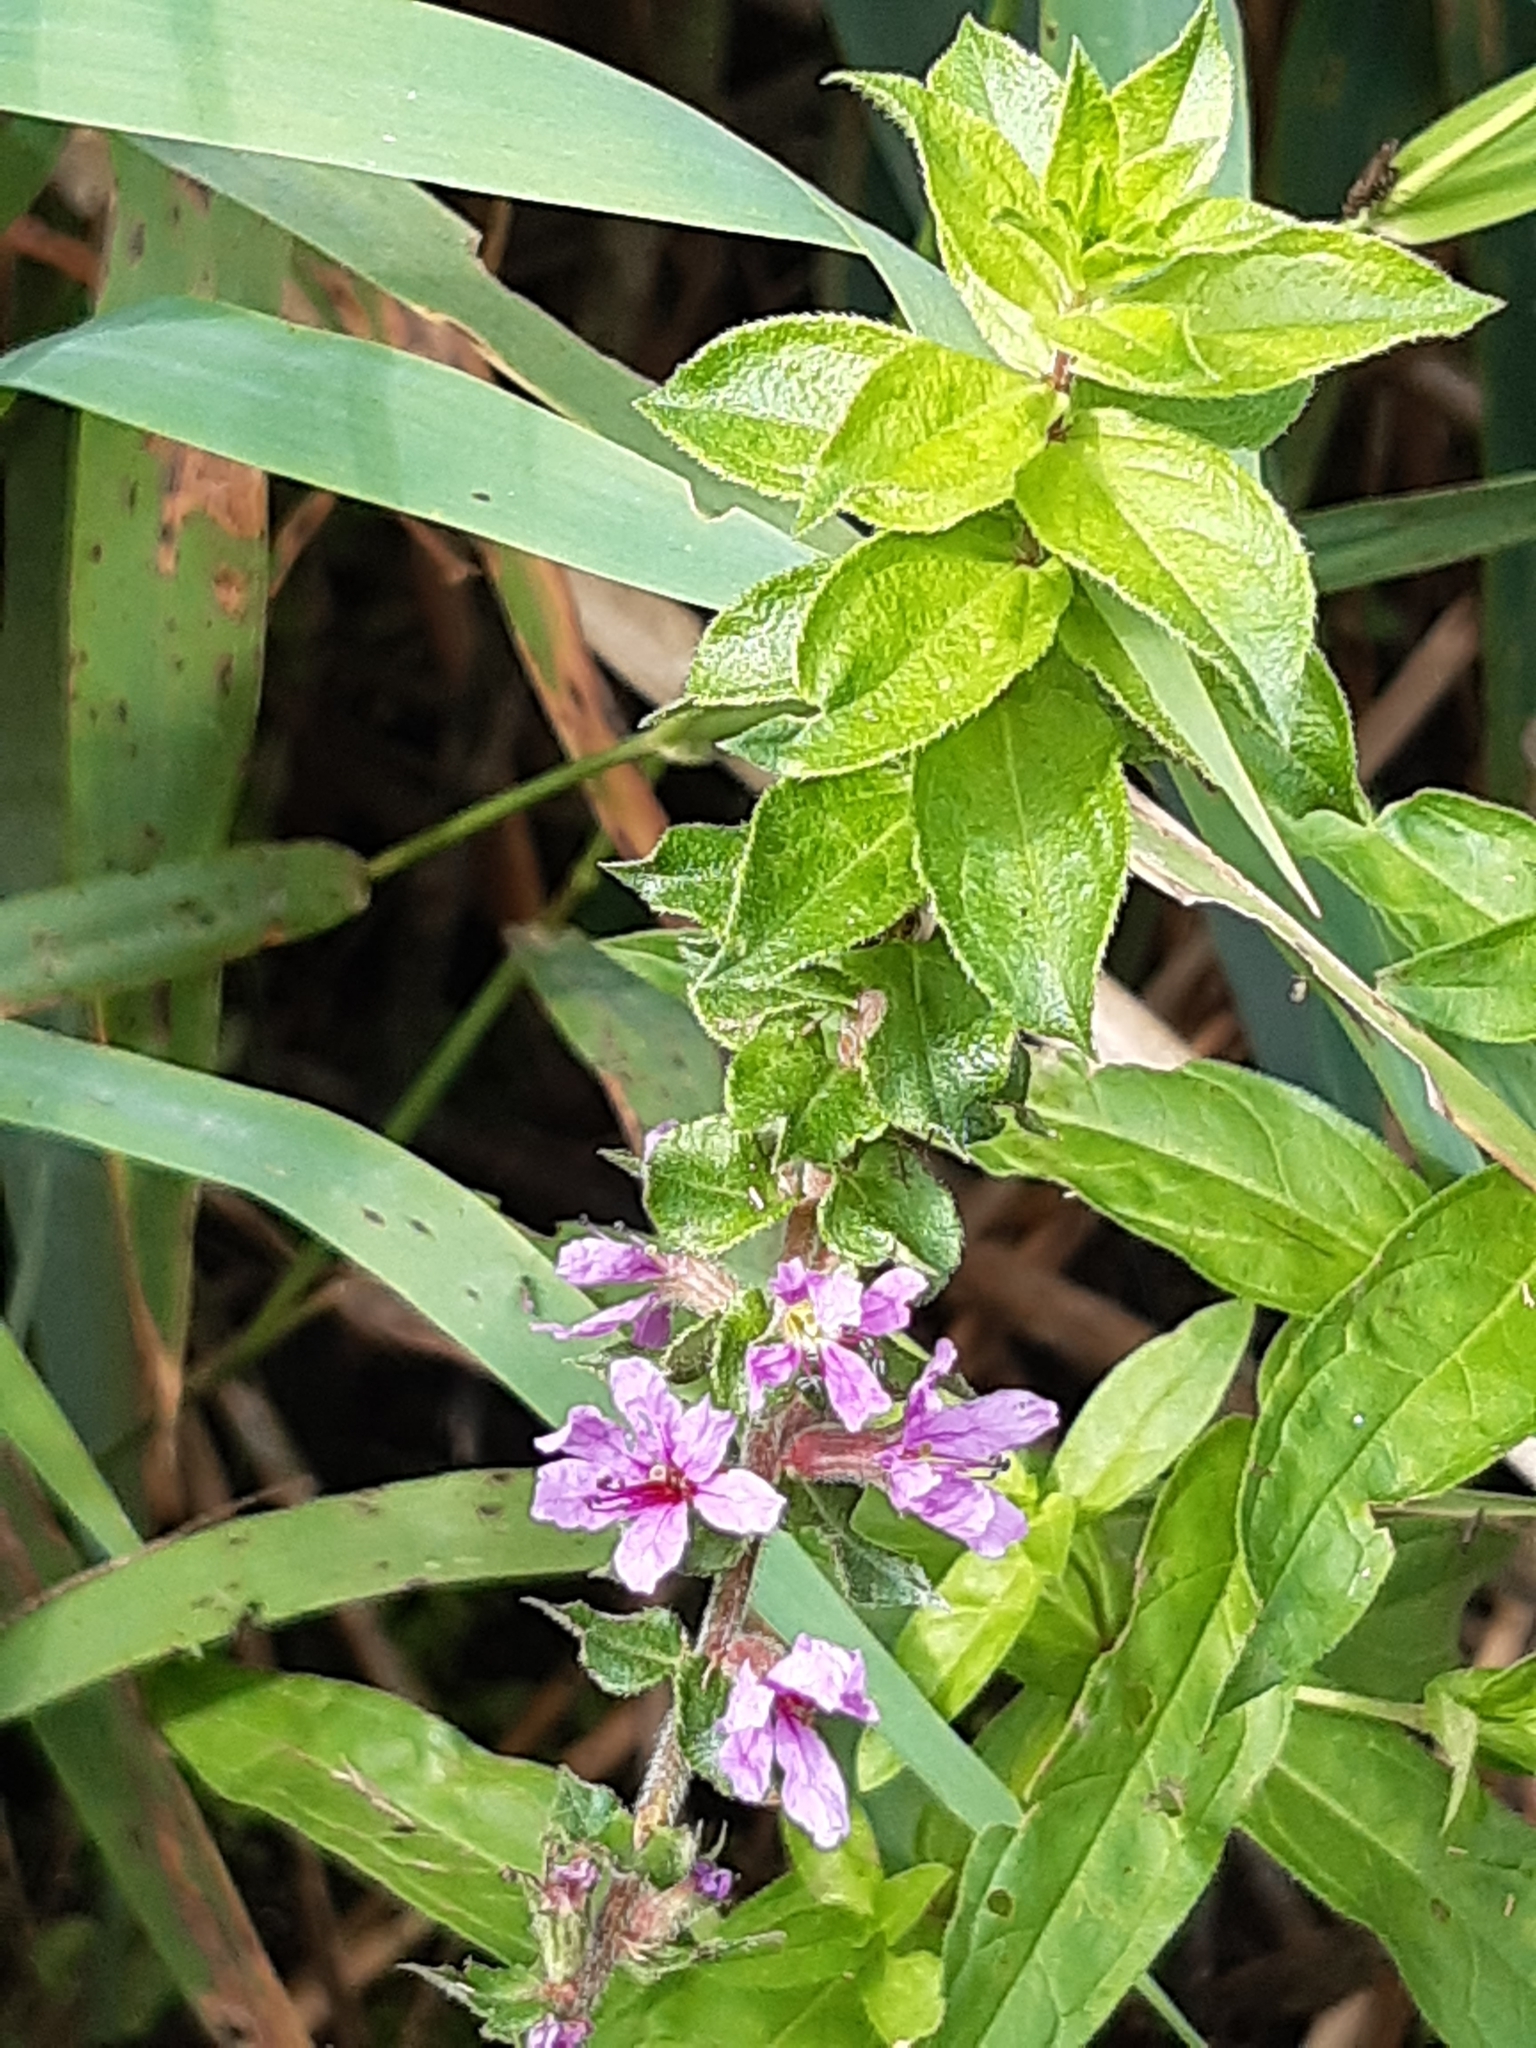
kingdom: Plantae
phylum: Tracheophyta
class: Magnoliopsida
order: Myrtales
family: Lythraceae
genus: Lythrum
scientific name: Lythrum salicaria
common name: Purple loosestrife
